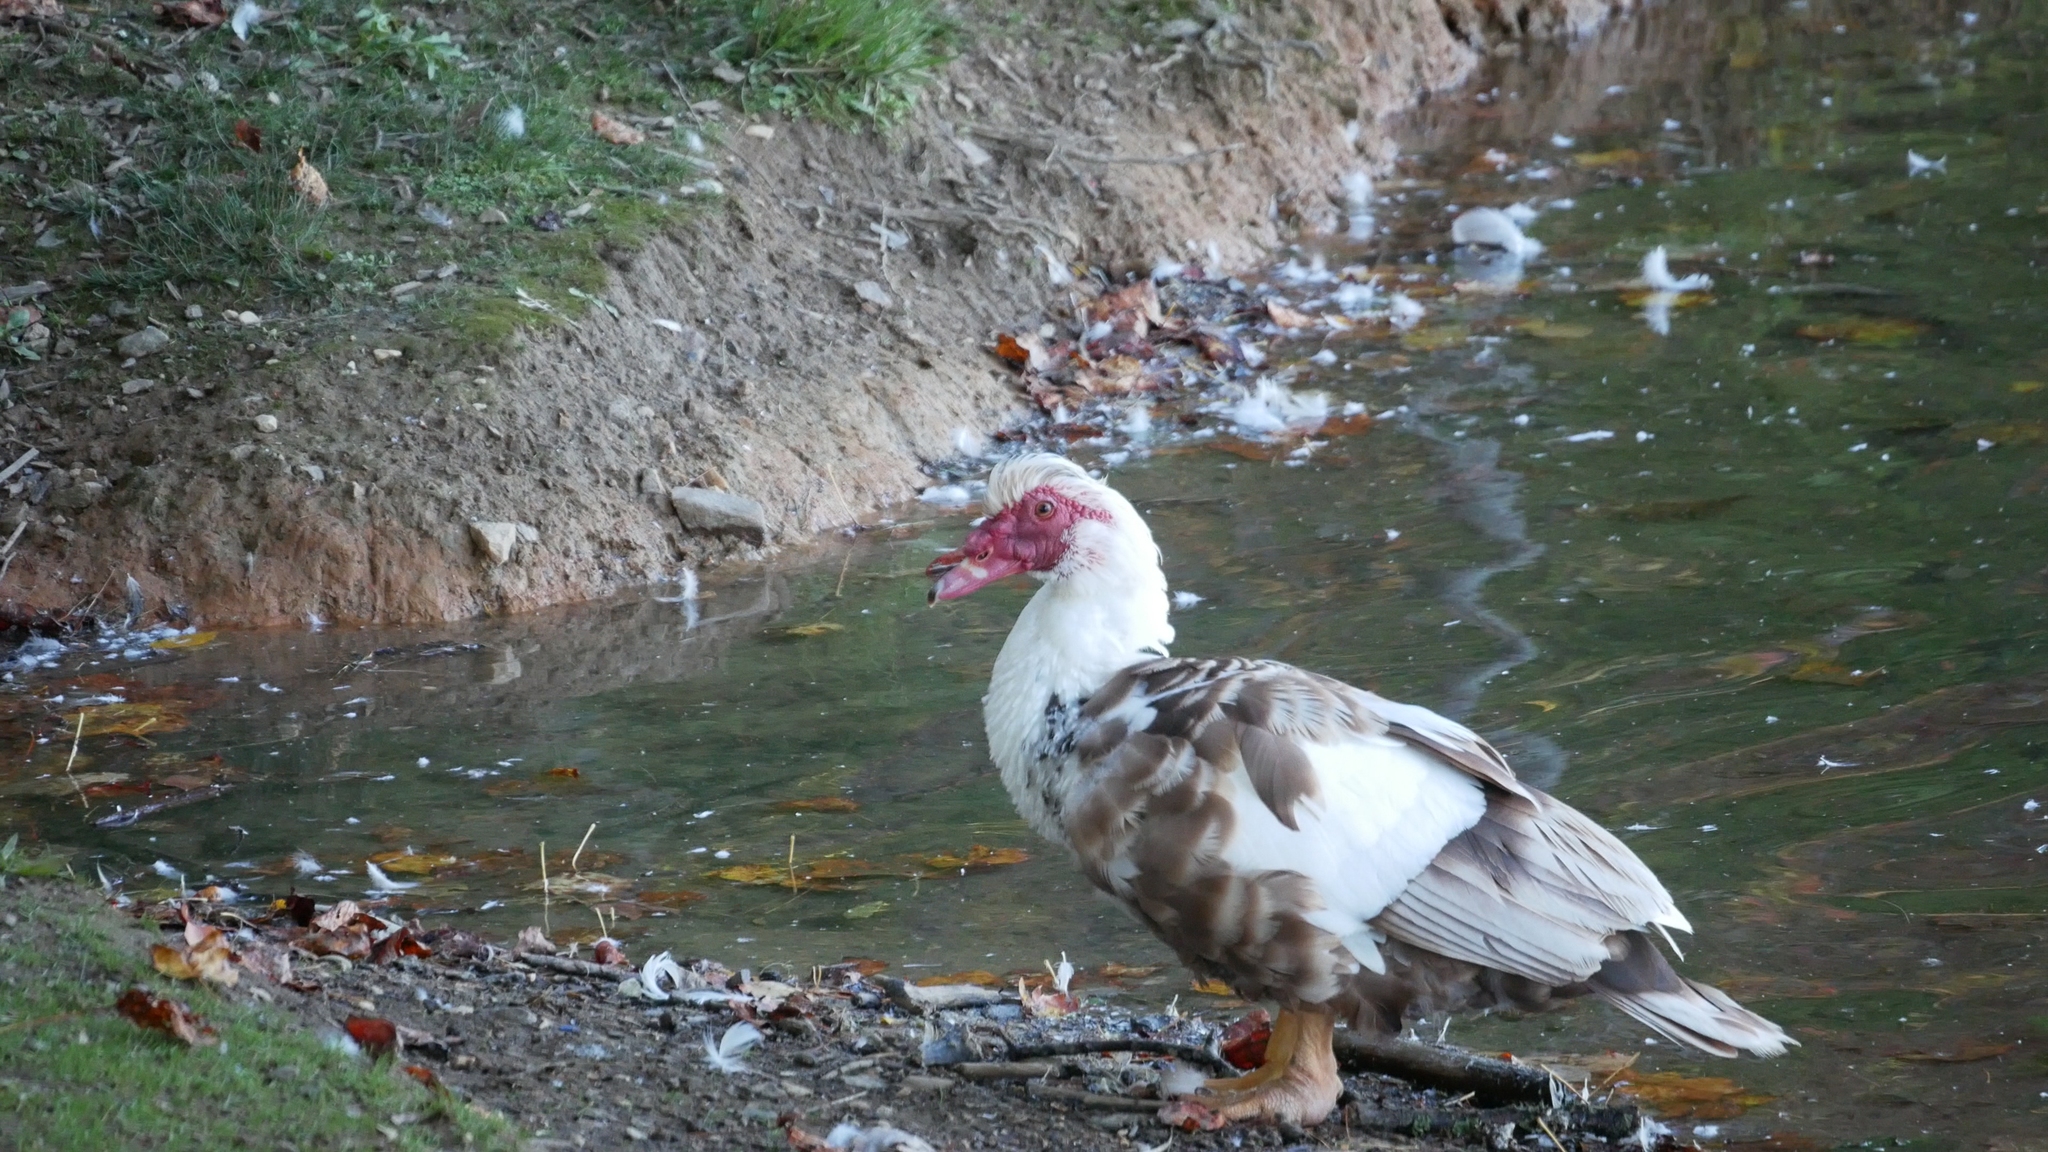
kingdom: Animalia
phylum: Chordata
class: Aves
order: Anseriformes
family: Anatidae
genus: Cairina
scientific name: Cairina moschata
